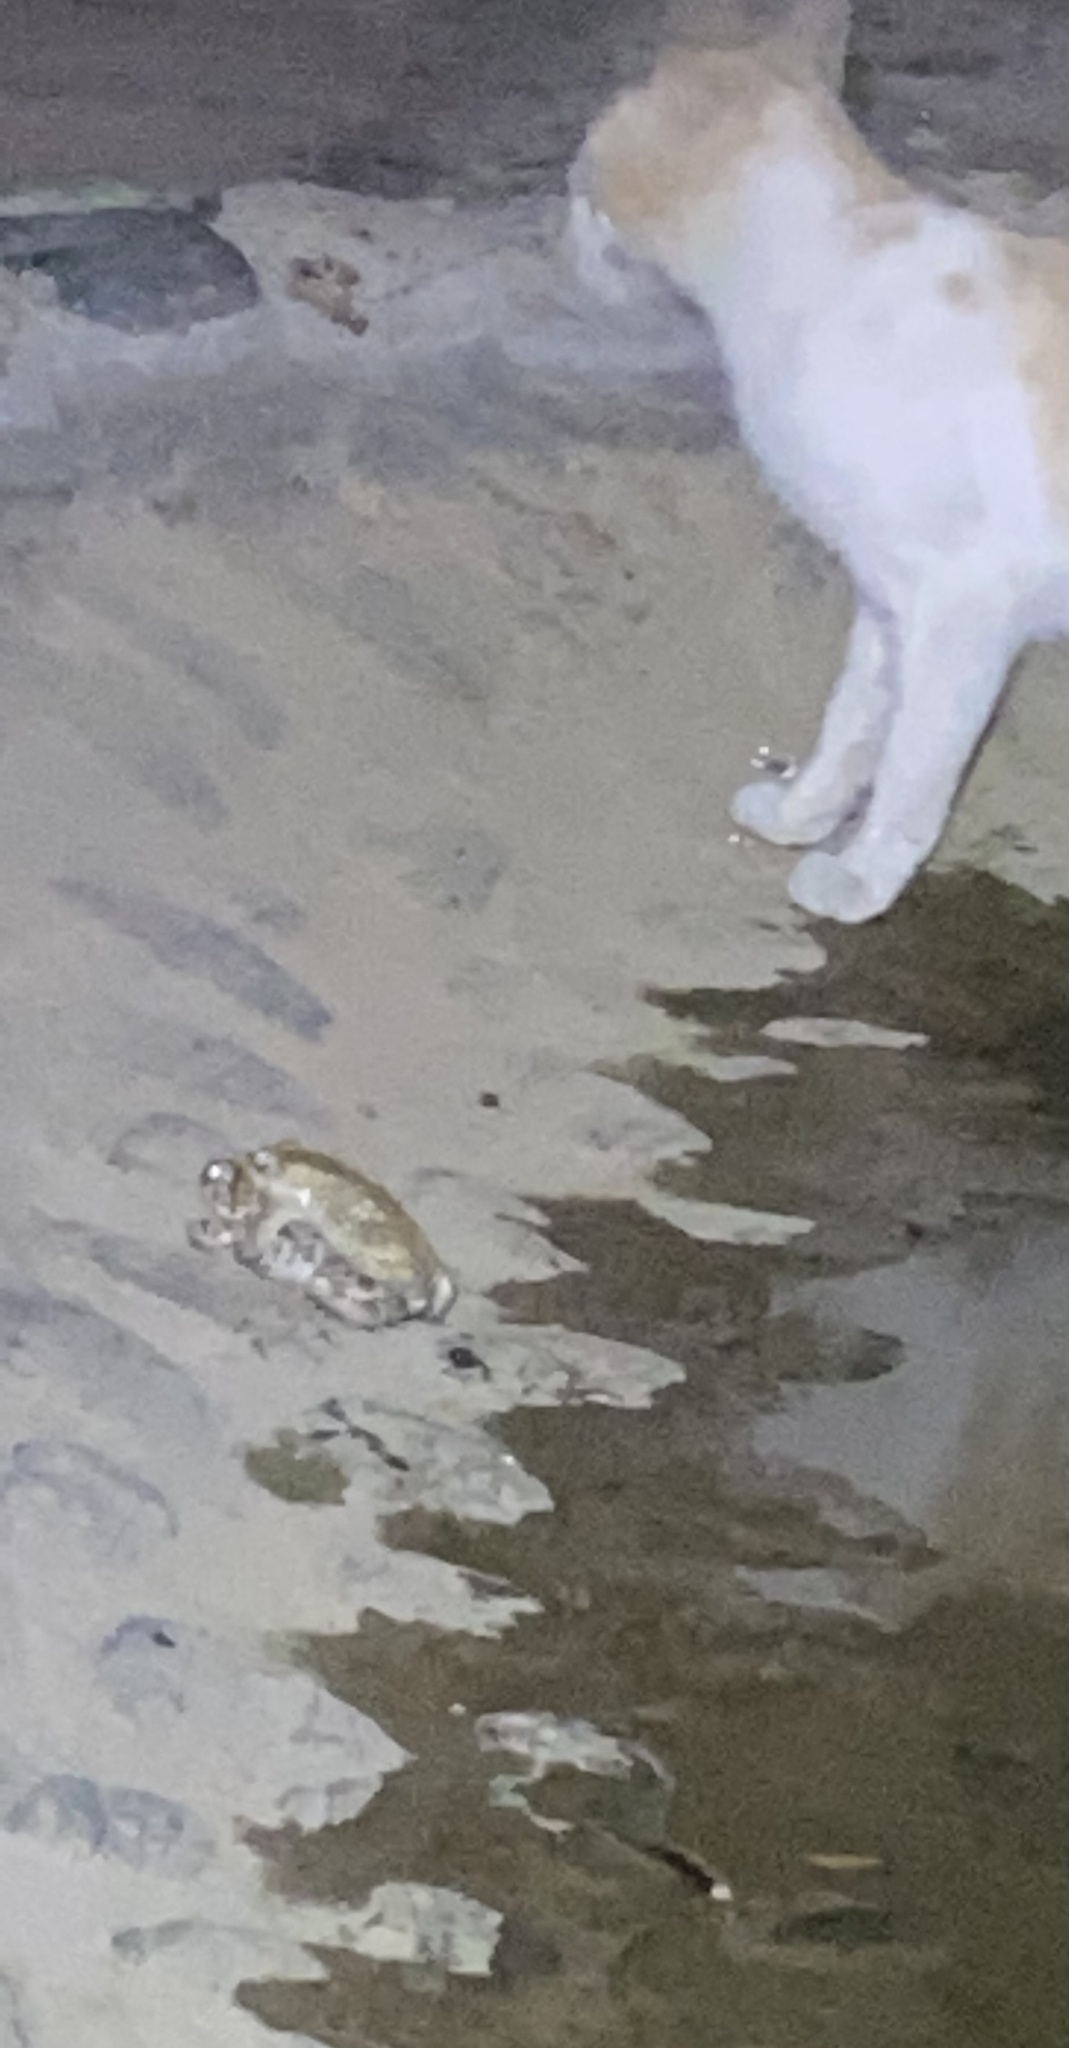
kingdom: Animalia
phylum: Chordata
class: Amphibia
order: Anura
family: Bufonidae
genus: Bufotes
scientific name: Bufotes viridis
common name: European green toad
